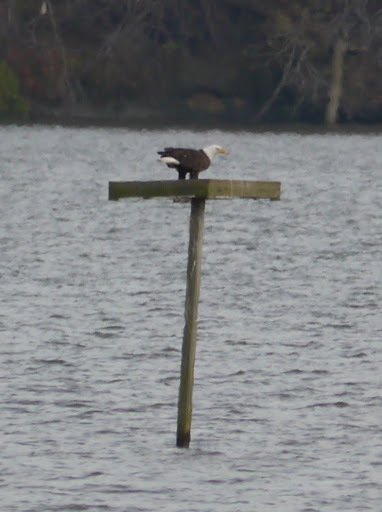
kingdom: Animalia
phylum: Chordata
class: Aves
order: Accipitriformes
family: Accipitridae
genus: Haliaeetus
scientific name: Haliaeetus leucocephalus
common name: Bald eagle
